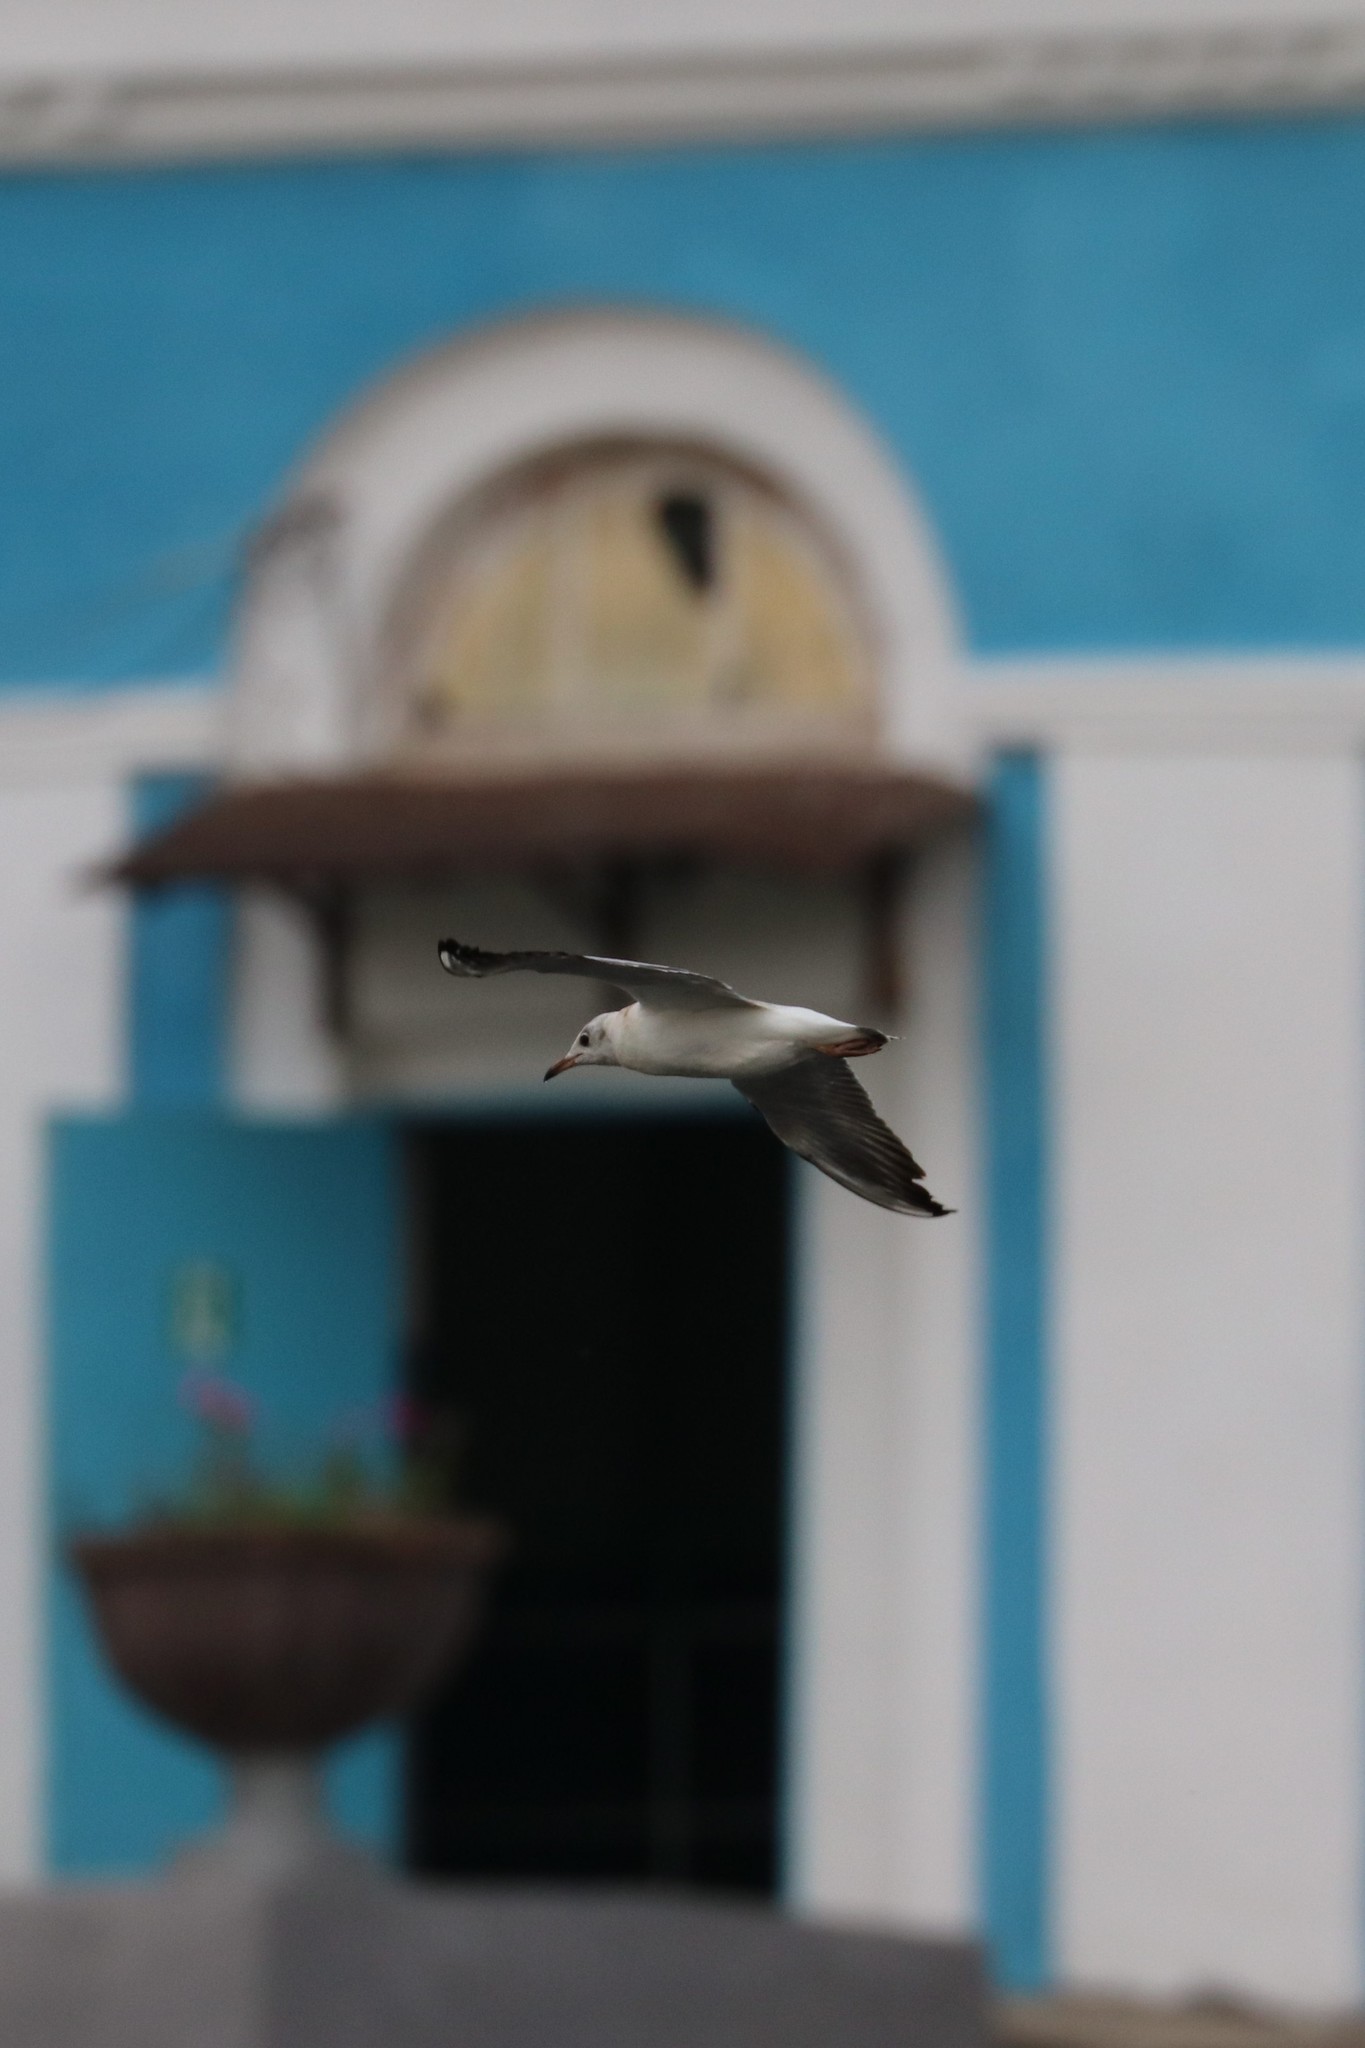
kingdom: Animalia
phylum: Chordata
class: Aves
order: Charadriiformes
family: Laridae
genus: Chroicocephalus
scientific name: Chroicocephalus ridibundus
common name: Black-headed gull
